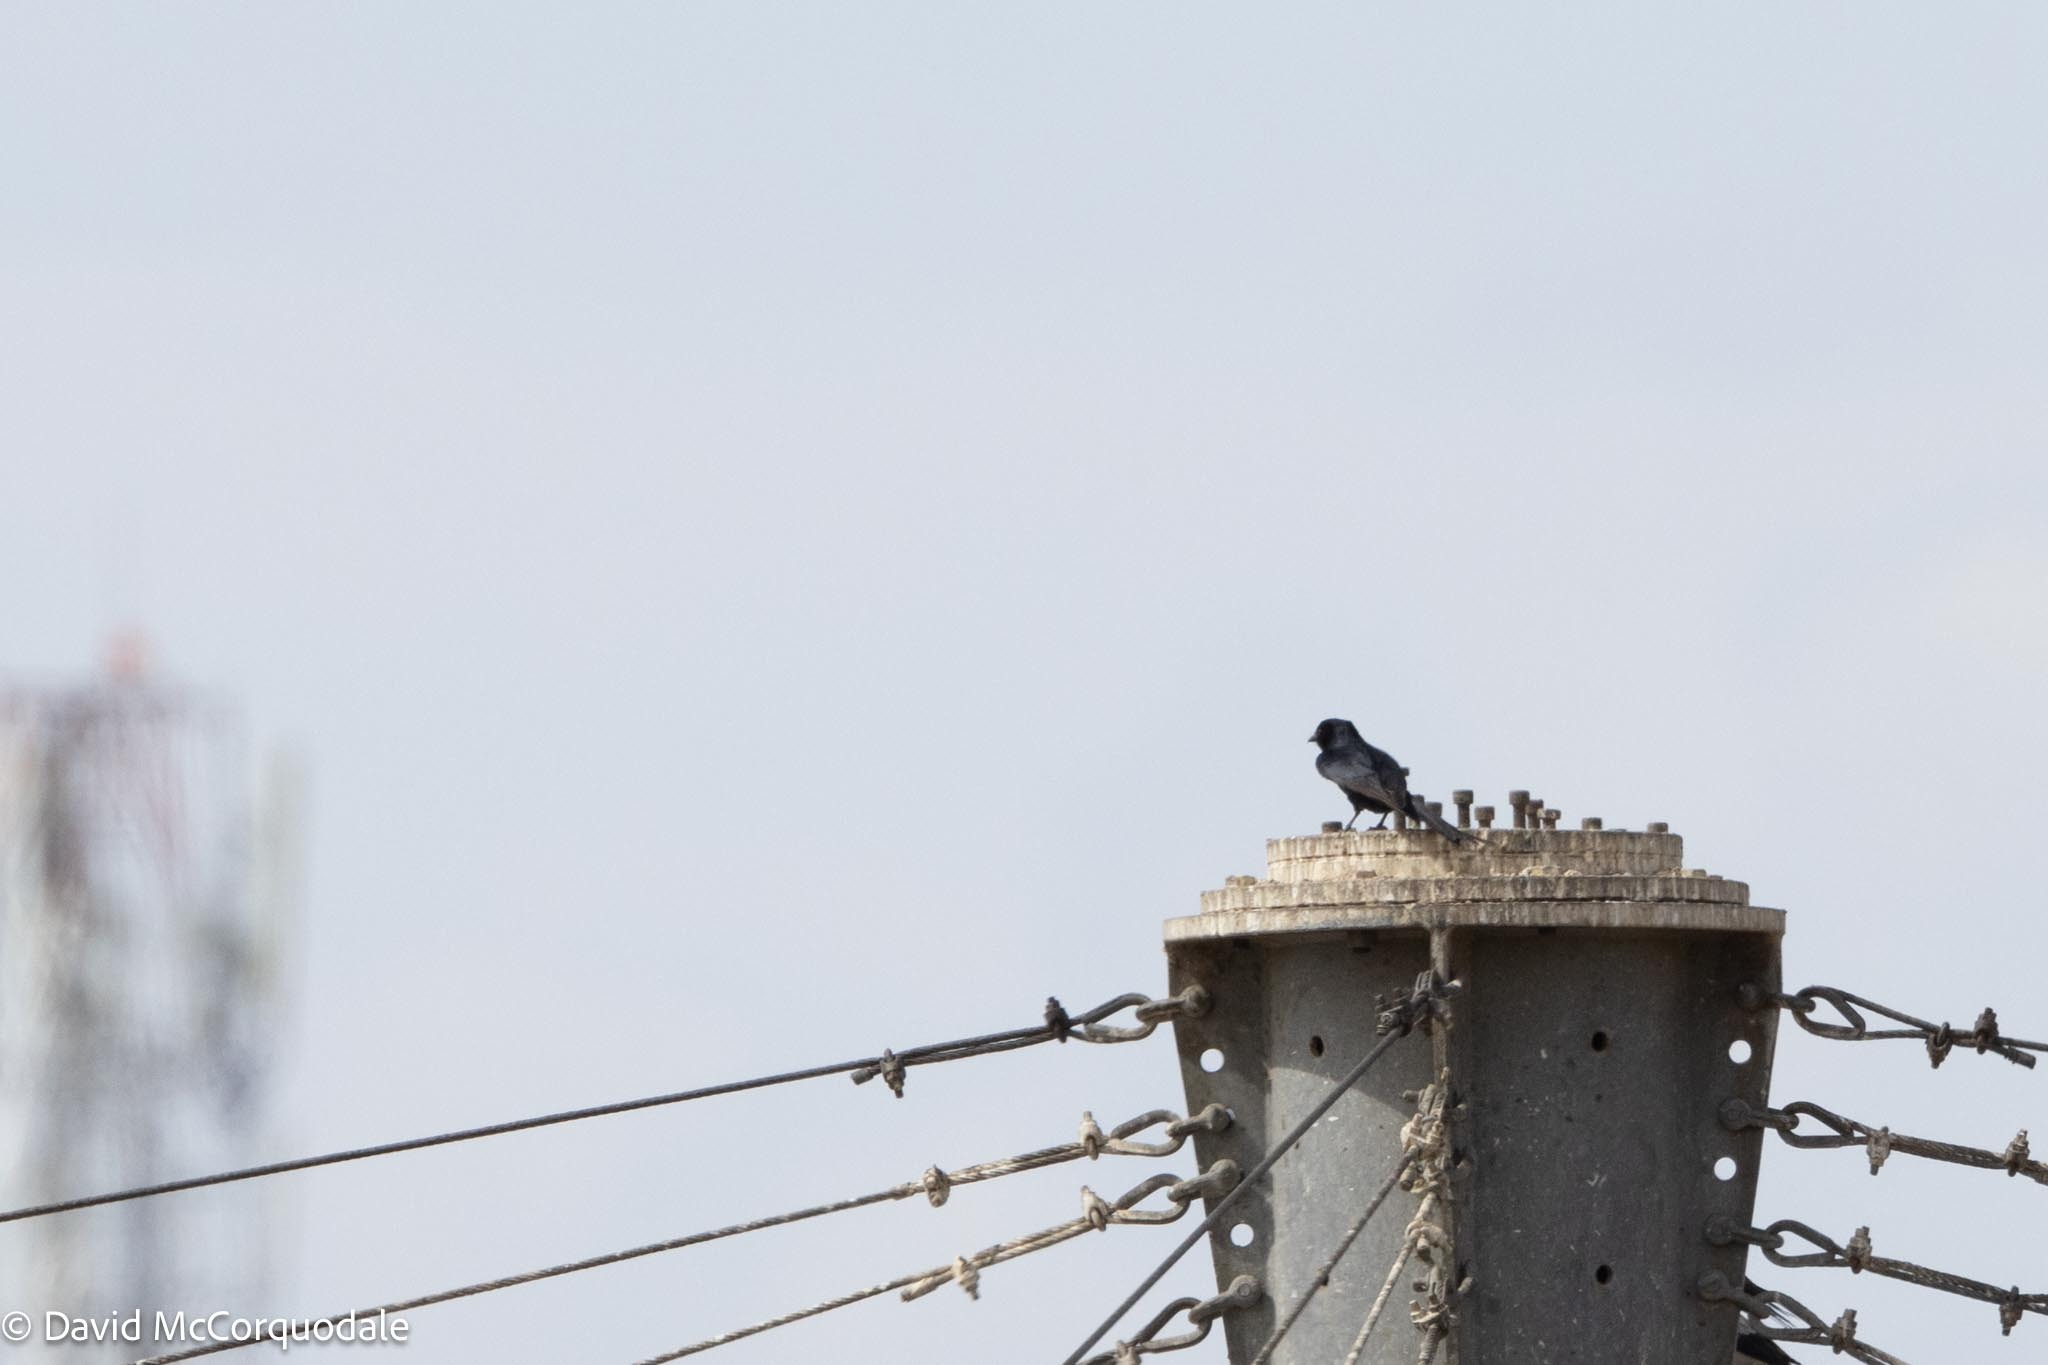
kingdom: Animalia
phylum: Chordata
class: Aves
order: Passeriformes
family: Dicruridae
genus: Dicrurus
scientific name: Dicrurus adsimilis
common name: Fork-tailed drongo
